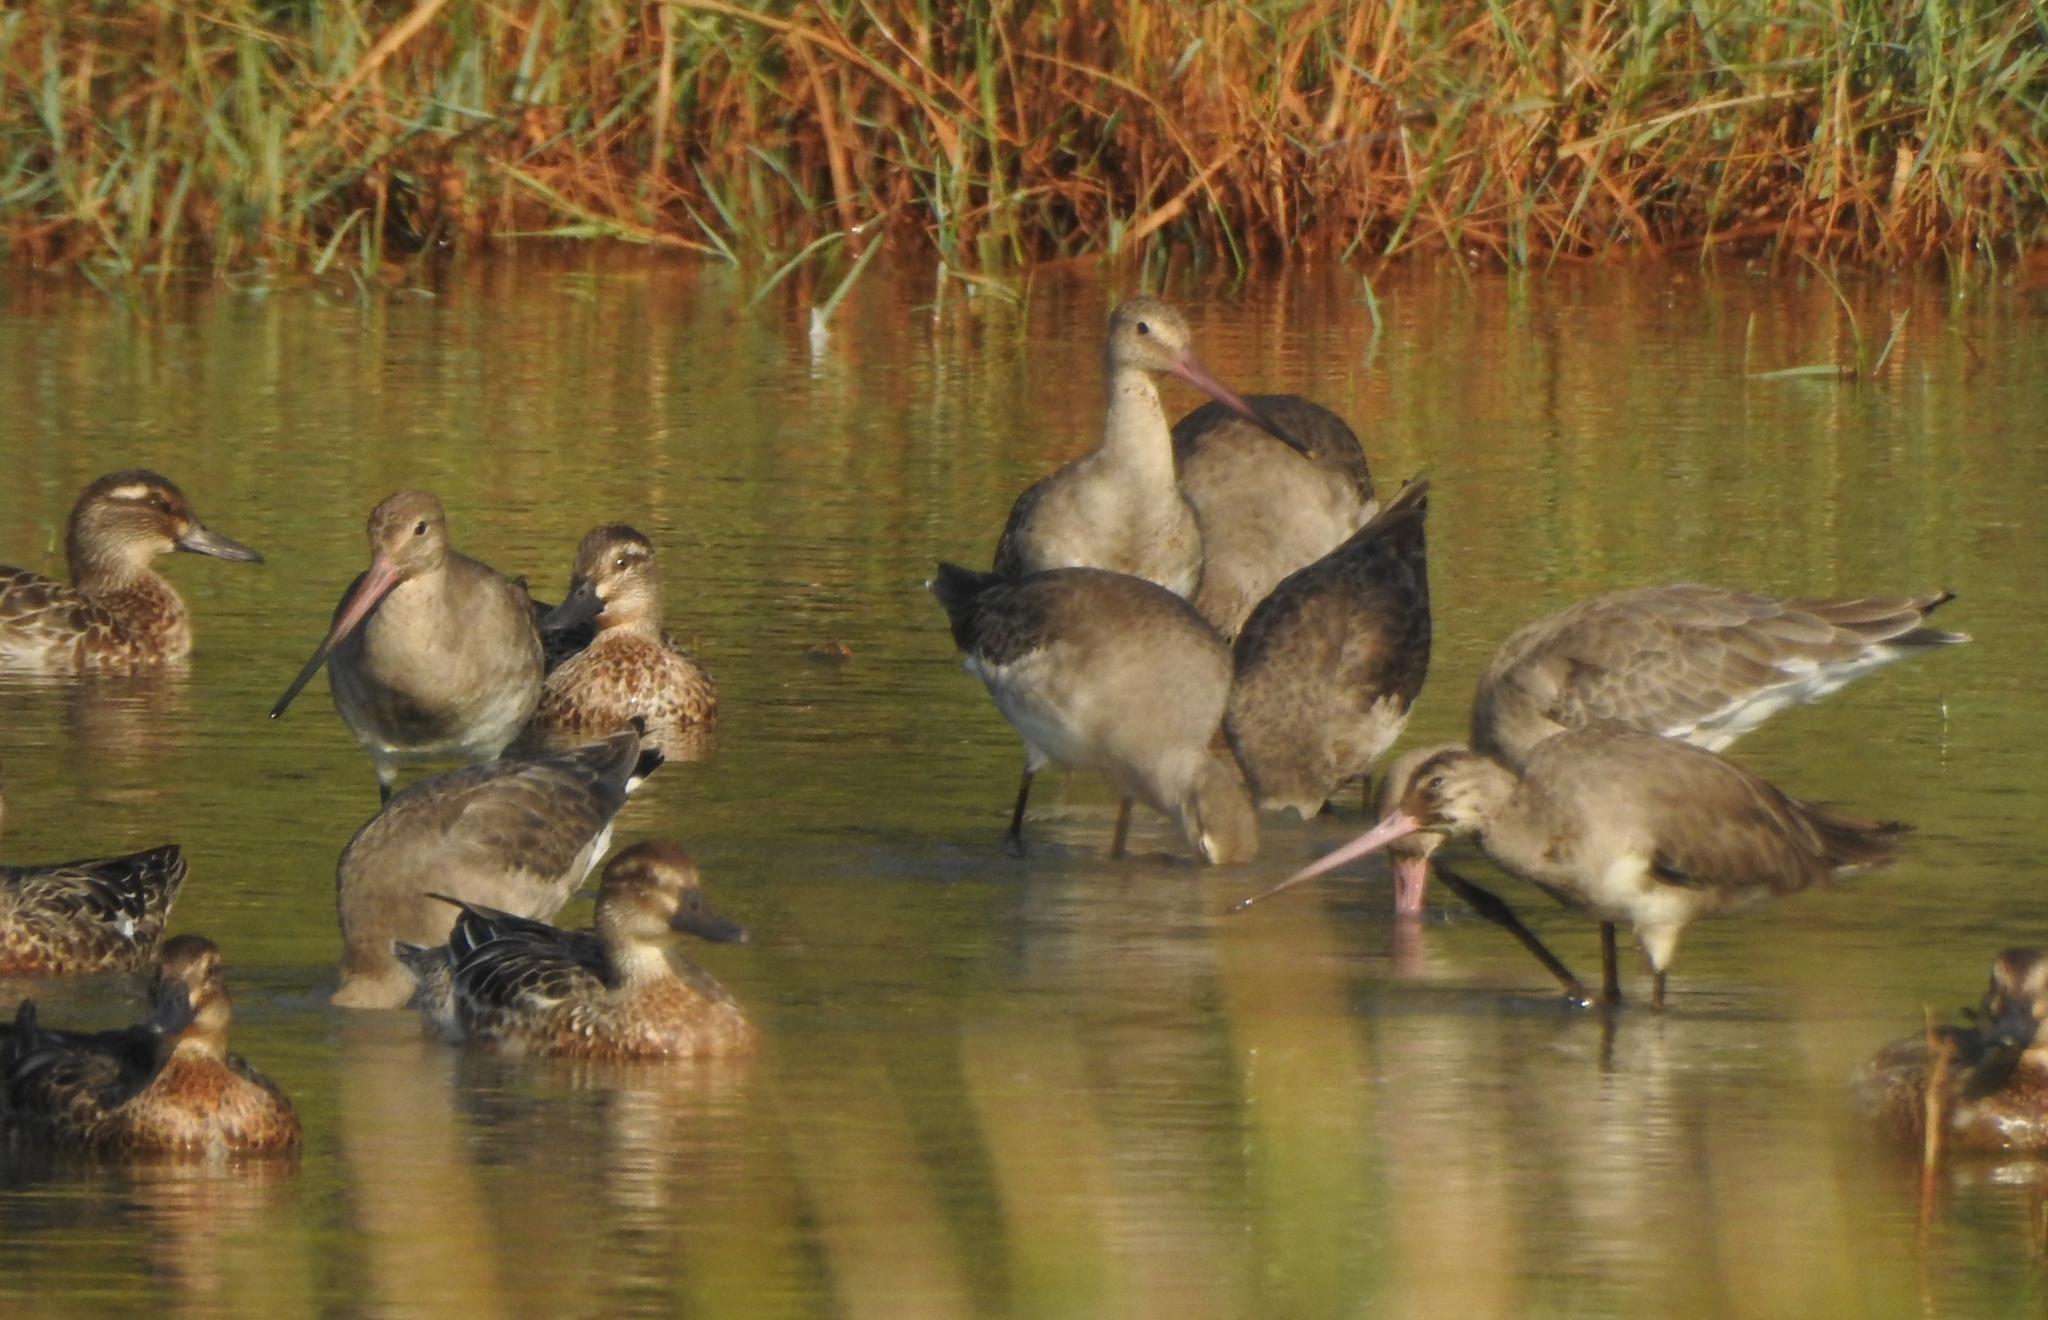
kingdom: Animalia
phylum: Chordata
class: Aves
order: Charadriiformes
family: Scolopacidae
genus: Limosa
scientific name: Limosa limosa
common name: Black-tailed godwit
